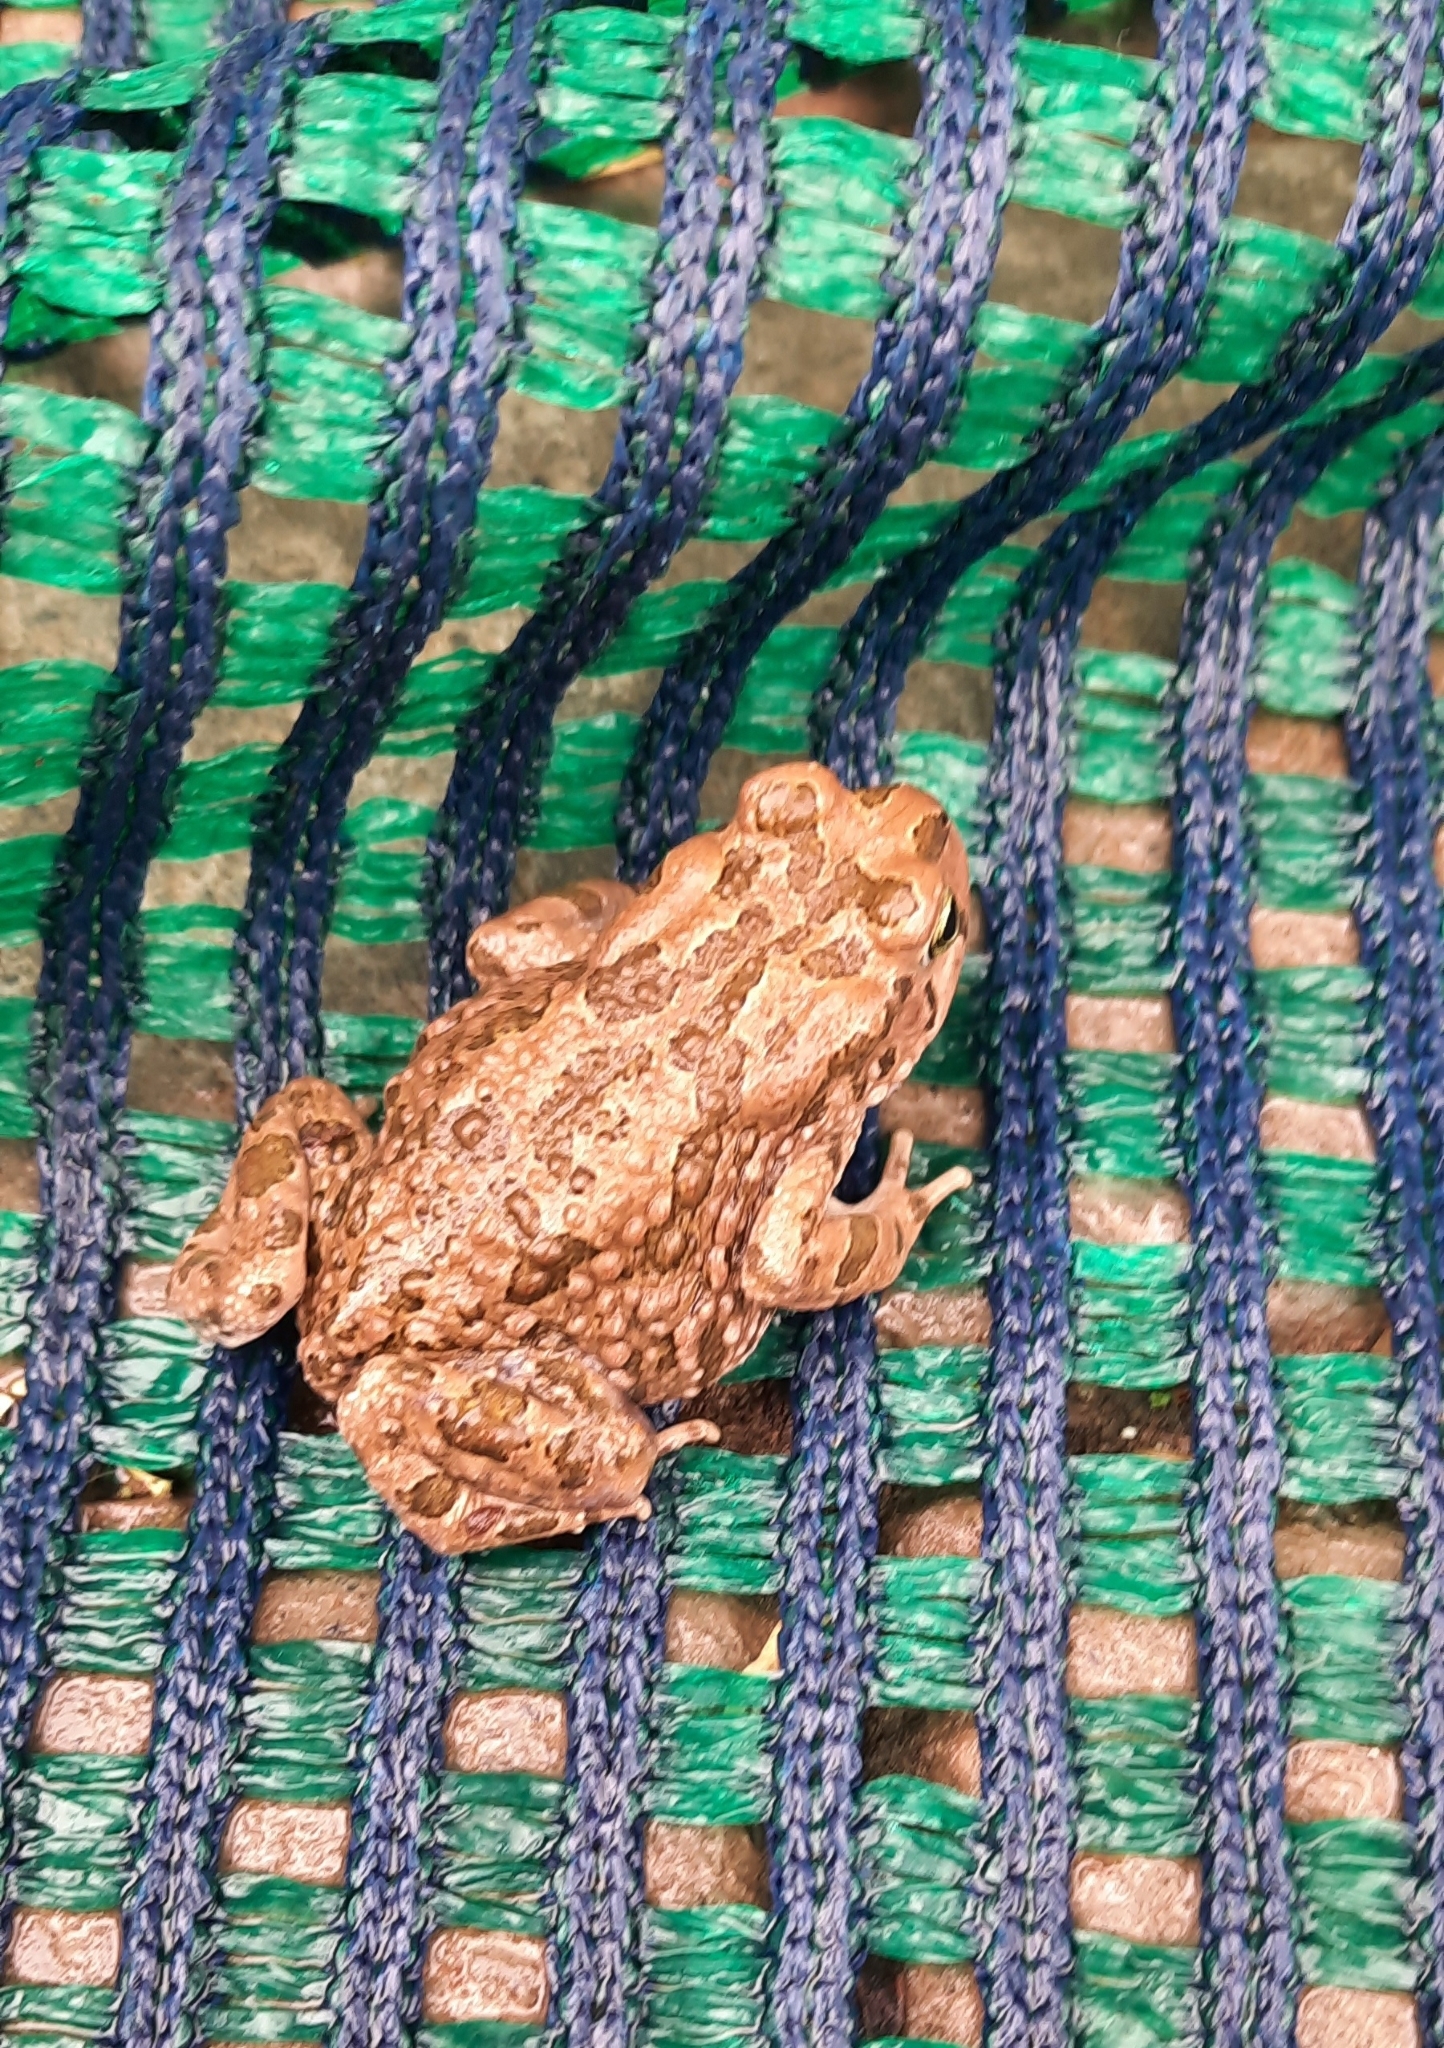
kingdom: Animalia
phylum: Chordata
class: Amphibia
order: Anura
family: Bufonidae
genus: Vandijkophrynus
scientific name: Vandijkophrynus gariepensis
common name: Gariep toad
